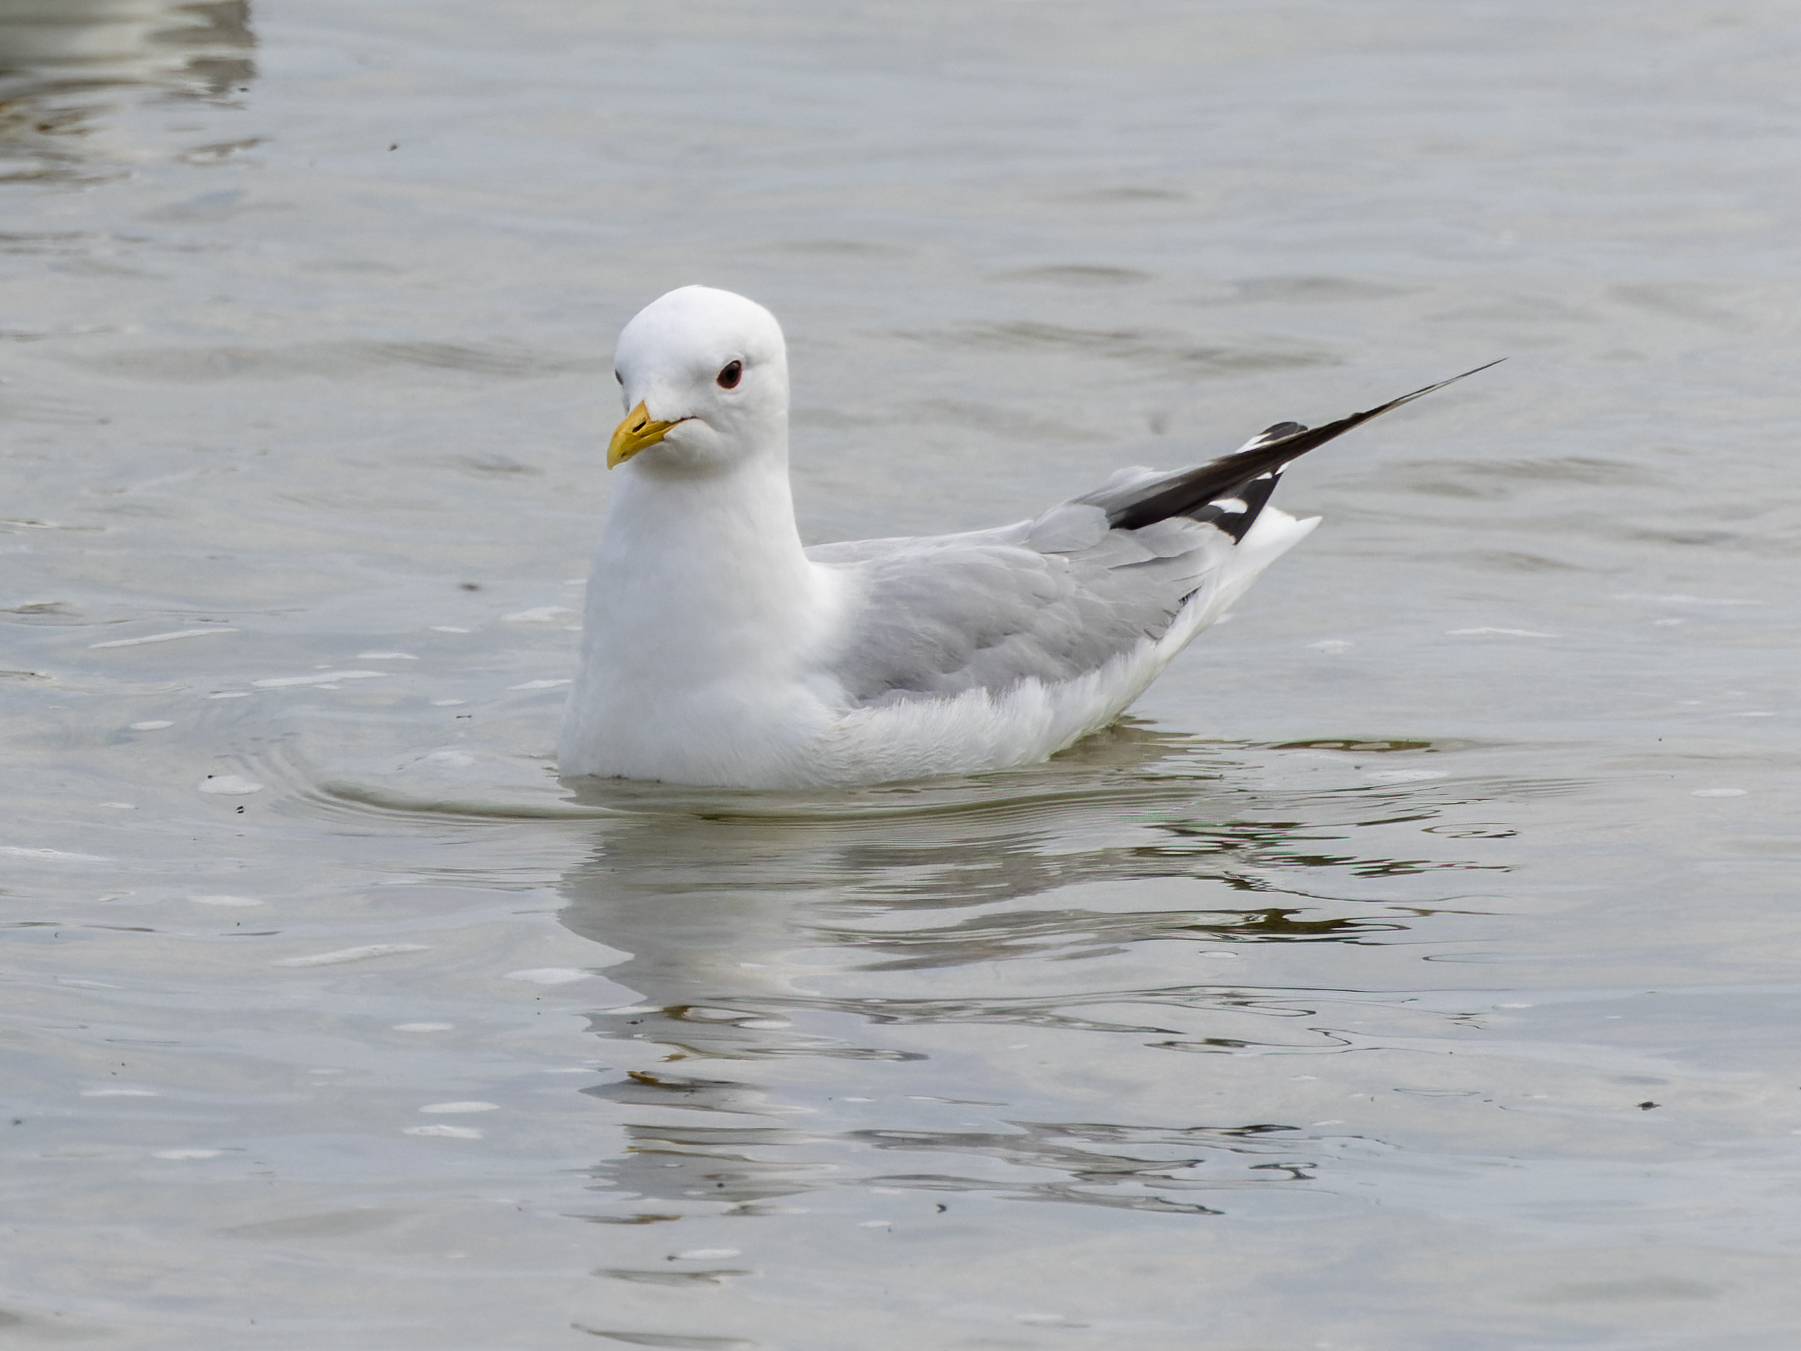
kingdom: Animalia
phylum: Chordata
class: Aves
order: Charadriiformes
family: Laridae
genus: Larus
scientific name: Larus canus
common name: Mew gull
